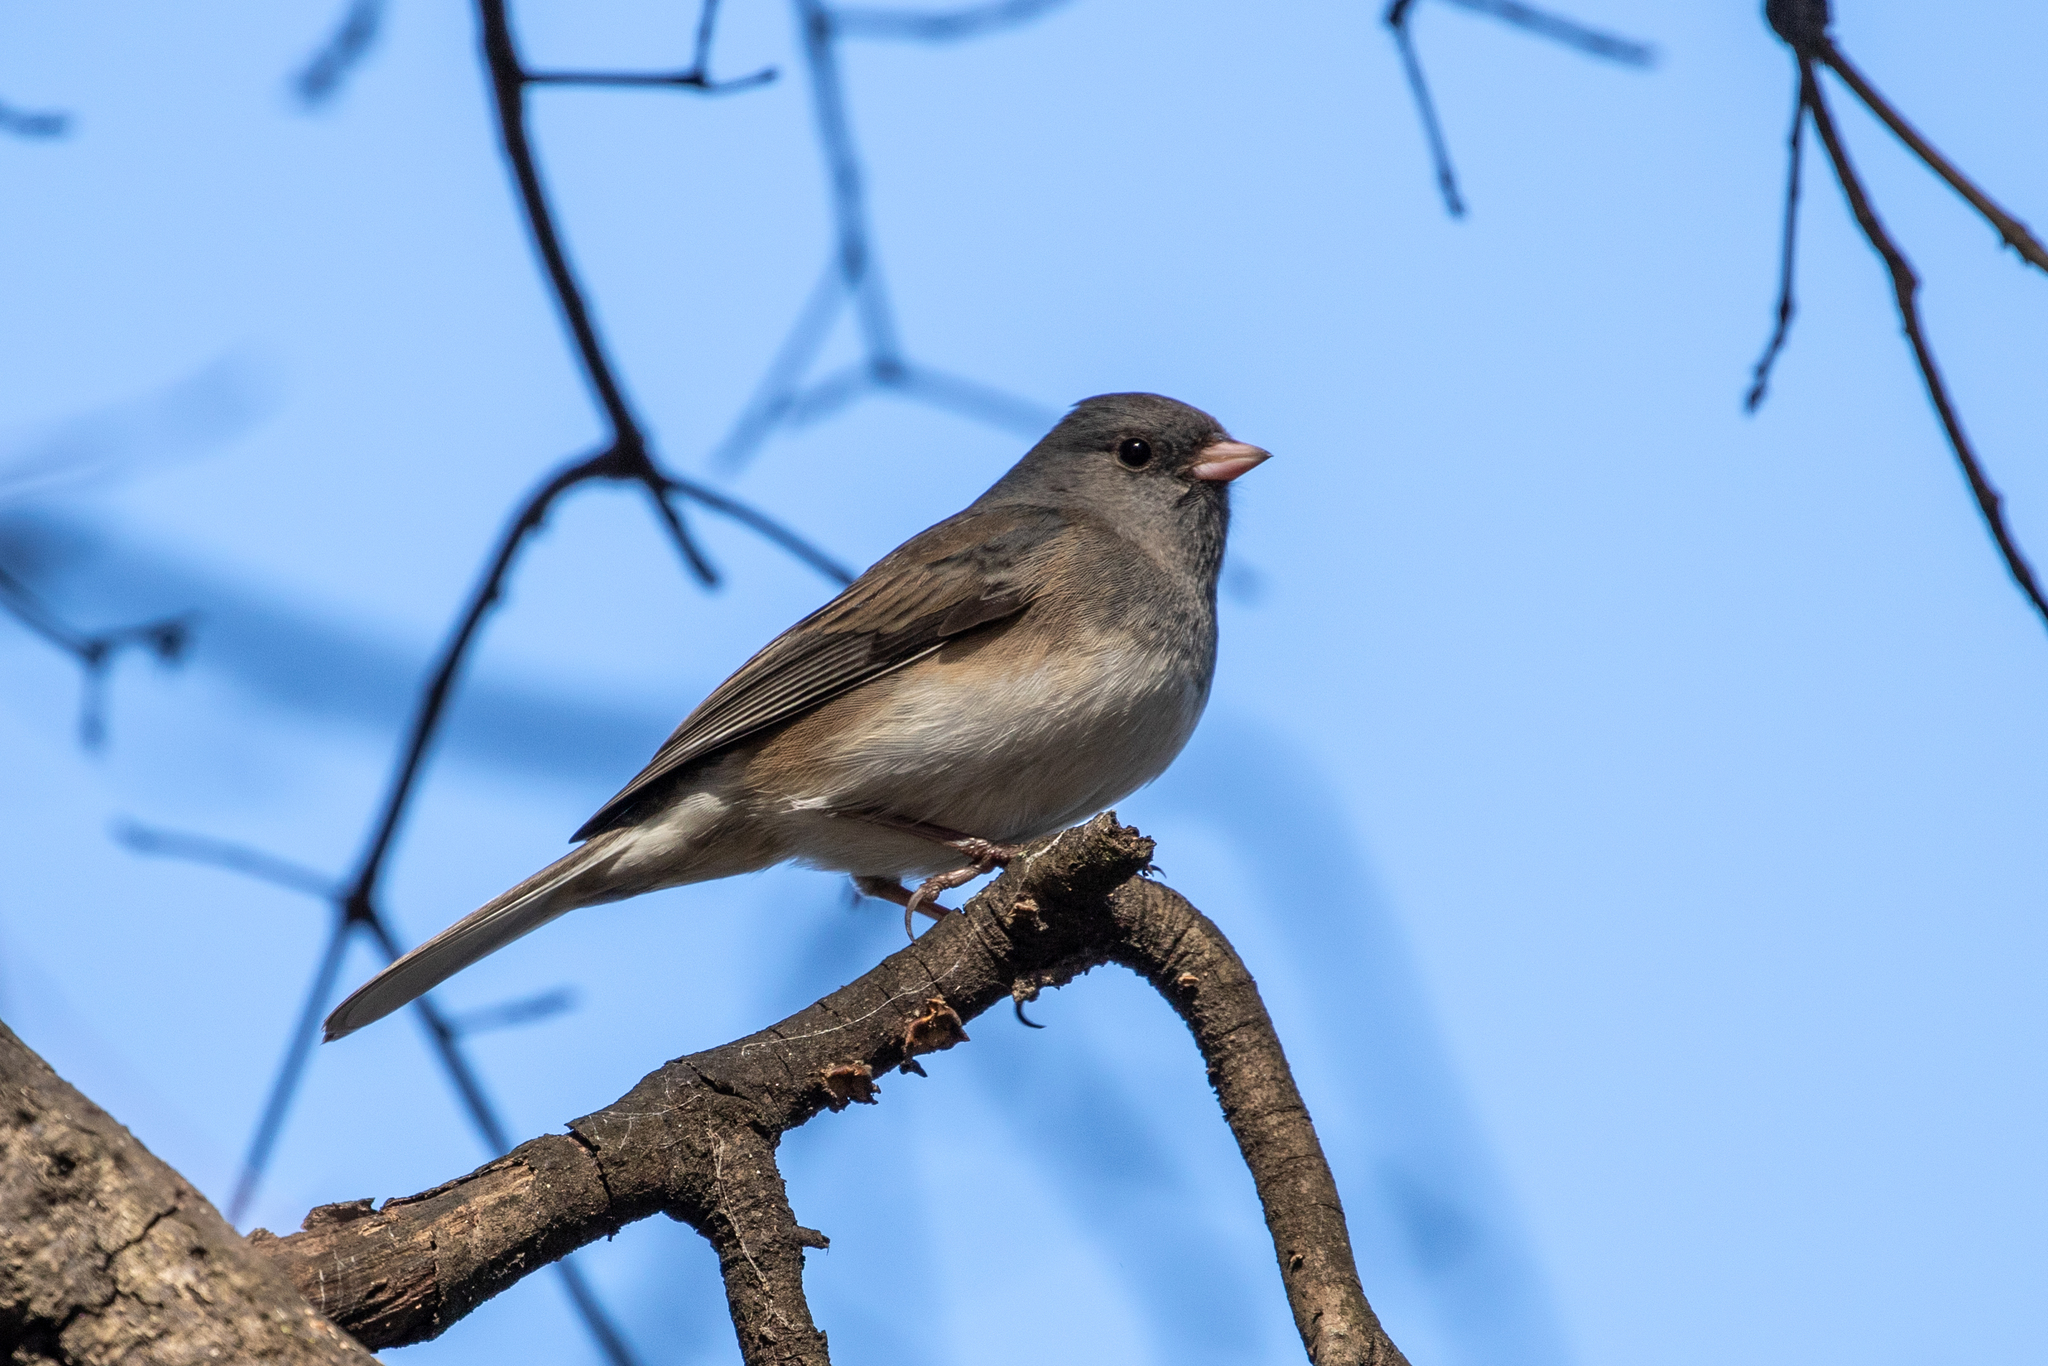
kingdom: Animalia
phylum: Chordata
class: Aves
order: Passeriformes
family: Passerellidae
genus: Junco
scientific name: Junco hyemalis
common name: Dark-eyed junco
